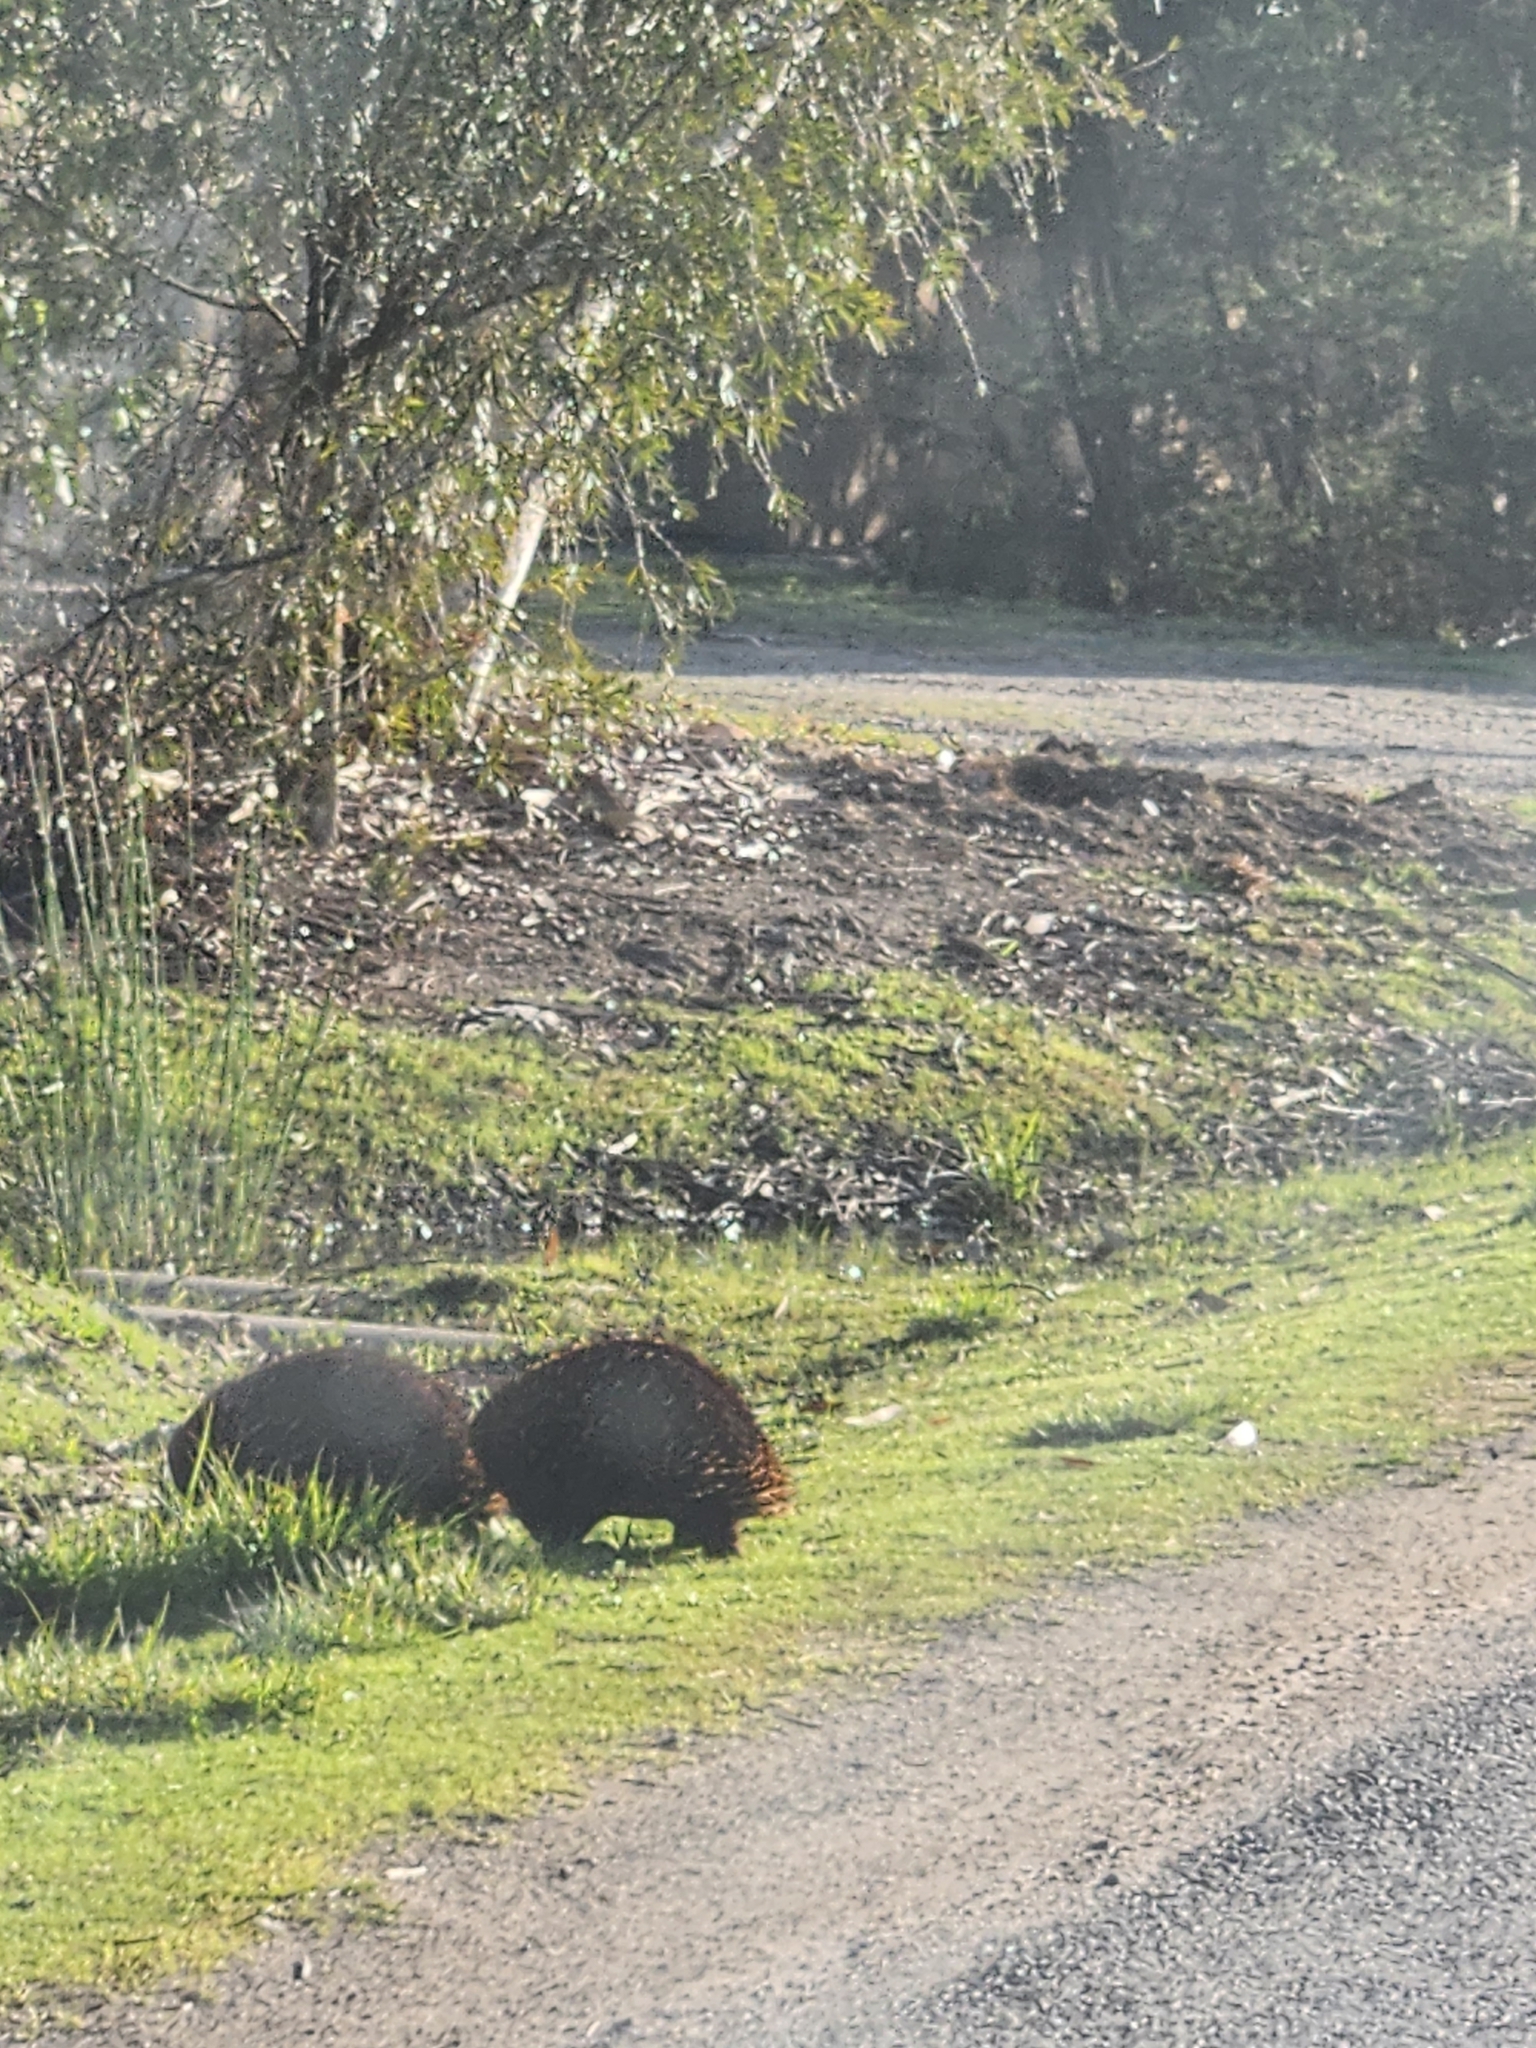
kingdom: Animalia
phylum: Chordata
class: Mammalia
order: Monotremata
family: Tachyglossidae
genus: Tachyglossus
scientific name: Tachyglossus aculeatus
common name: Short-beaked echidna
